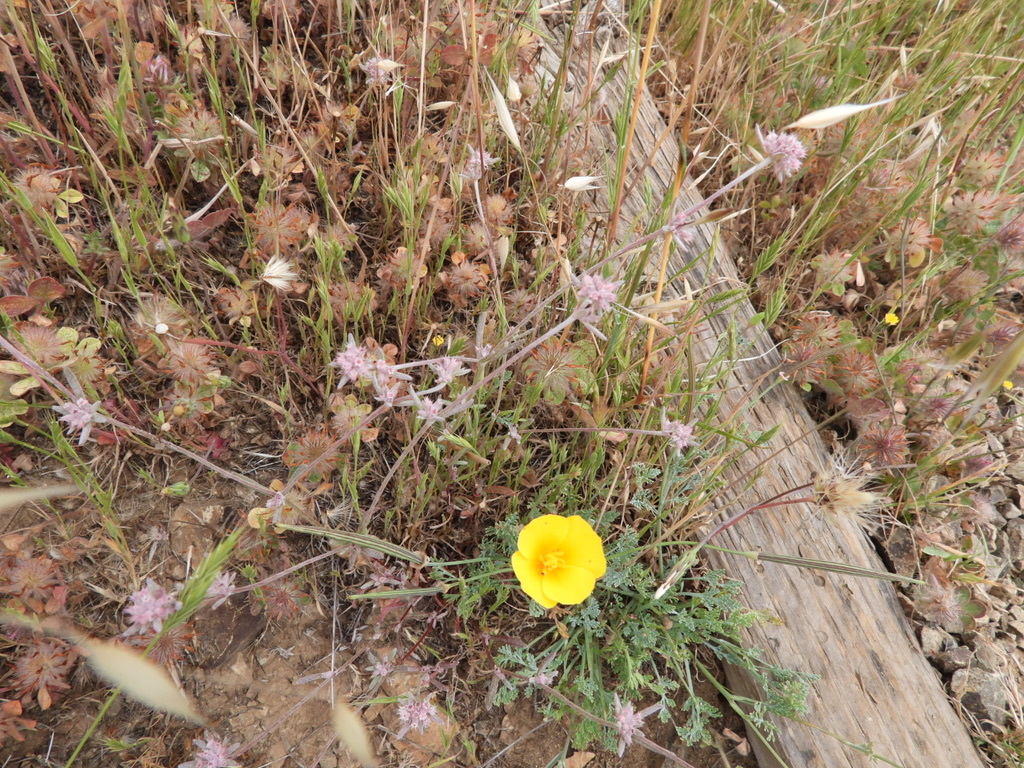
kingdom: Plantae
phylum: Tracheophyta
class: Magnoliopsida
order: Ranunculales
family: Papaveraceae
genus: Eschscholzia
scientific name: Eschscholzia californica
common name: California poppy
